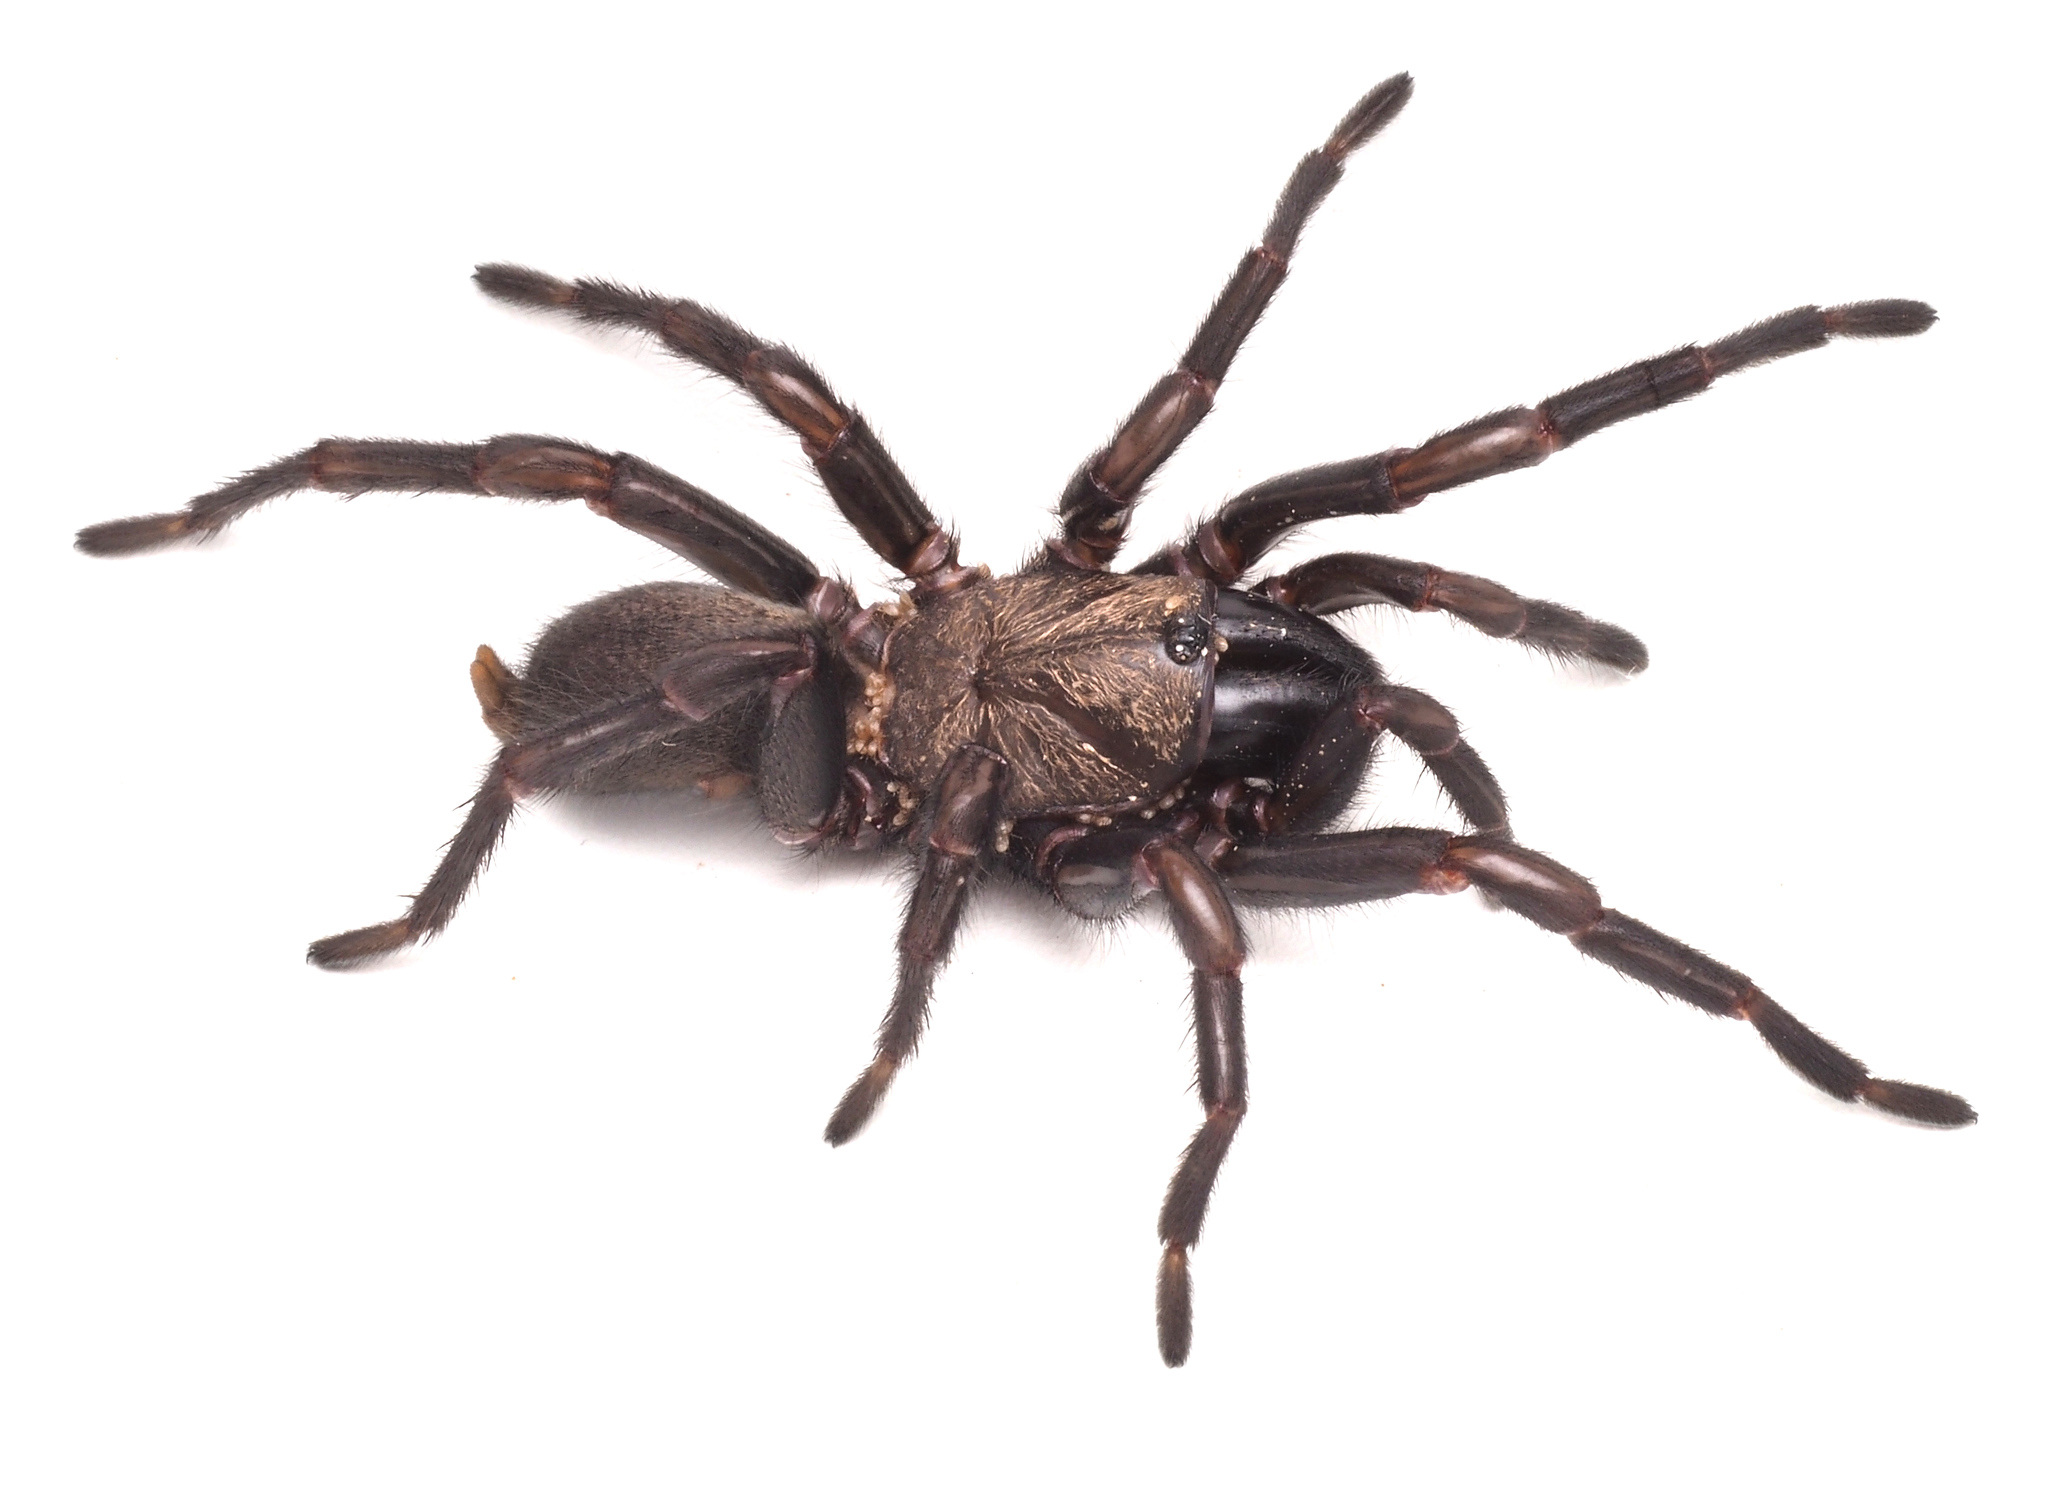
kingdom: Animalia
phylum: Arthropoda
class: Arachnida
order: Araneae
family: Anamidae
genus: Aname
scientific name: Aname pallida
